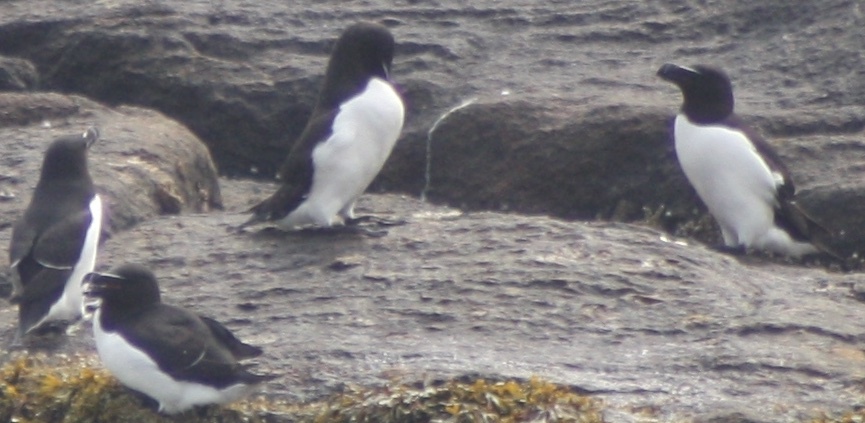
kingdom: Animalia
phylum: Chordata
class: Aves
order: Charadriiformes
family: Alcidae
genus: Alca
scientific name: Alca torda
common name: Razorbill
